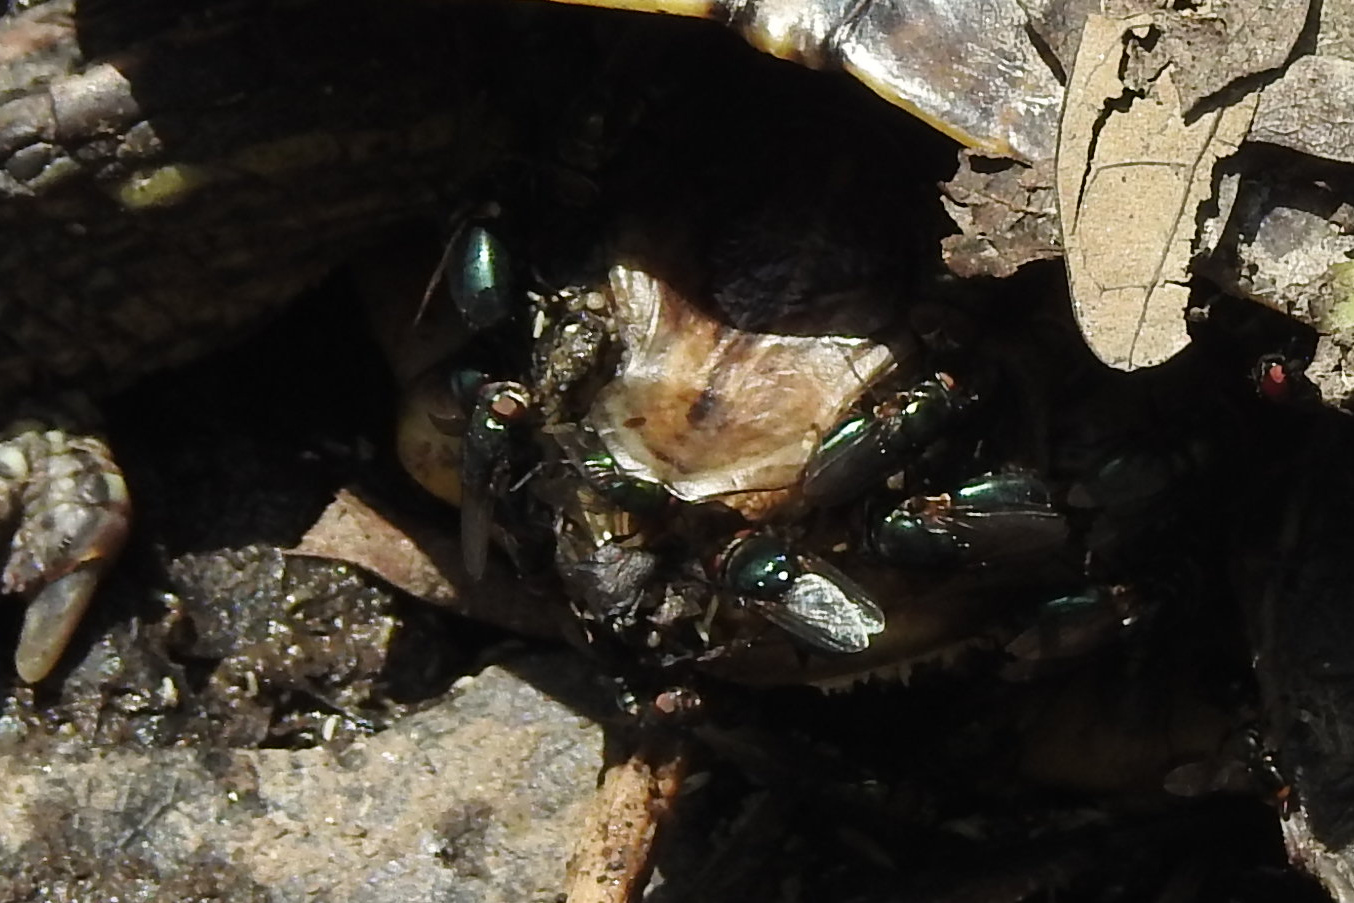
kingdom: Animalia
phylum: Arthropoda
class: Insecta
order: Diptera
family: Calliphoridae
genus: Phormia
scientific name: Phormia regina
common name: Black blow fly
